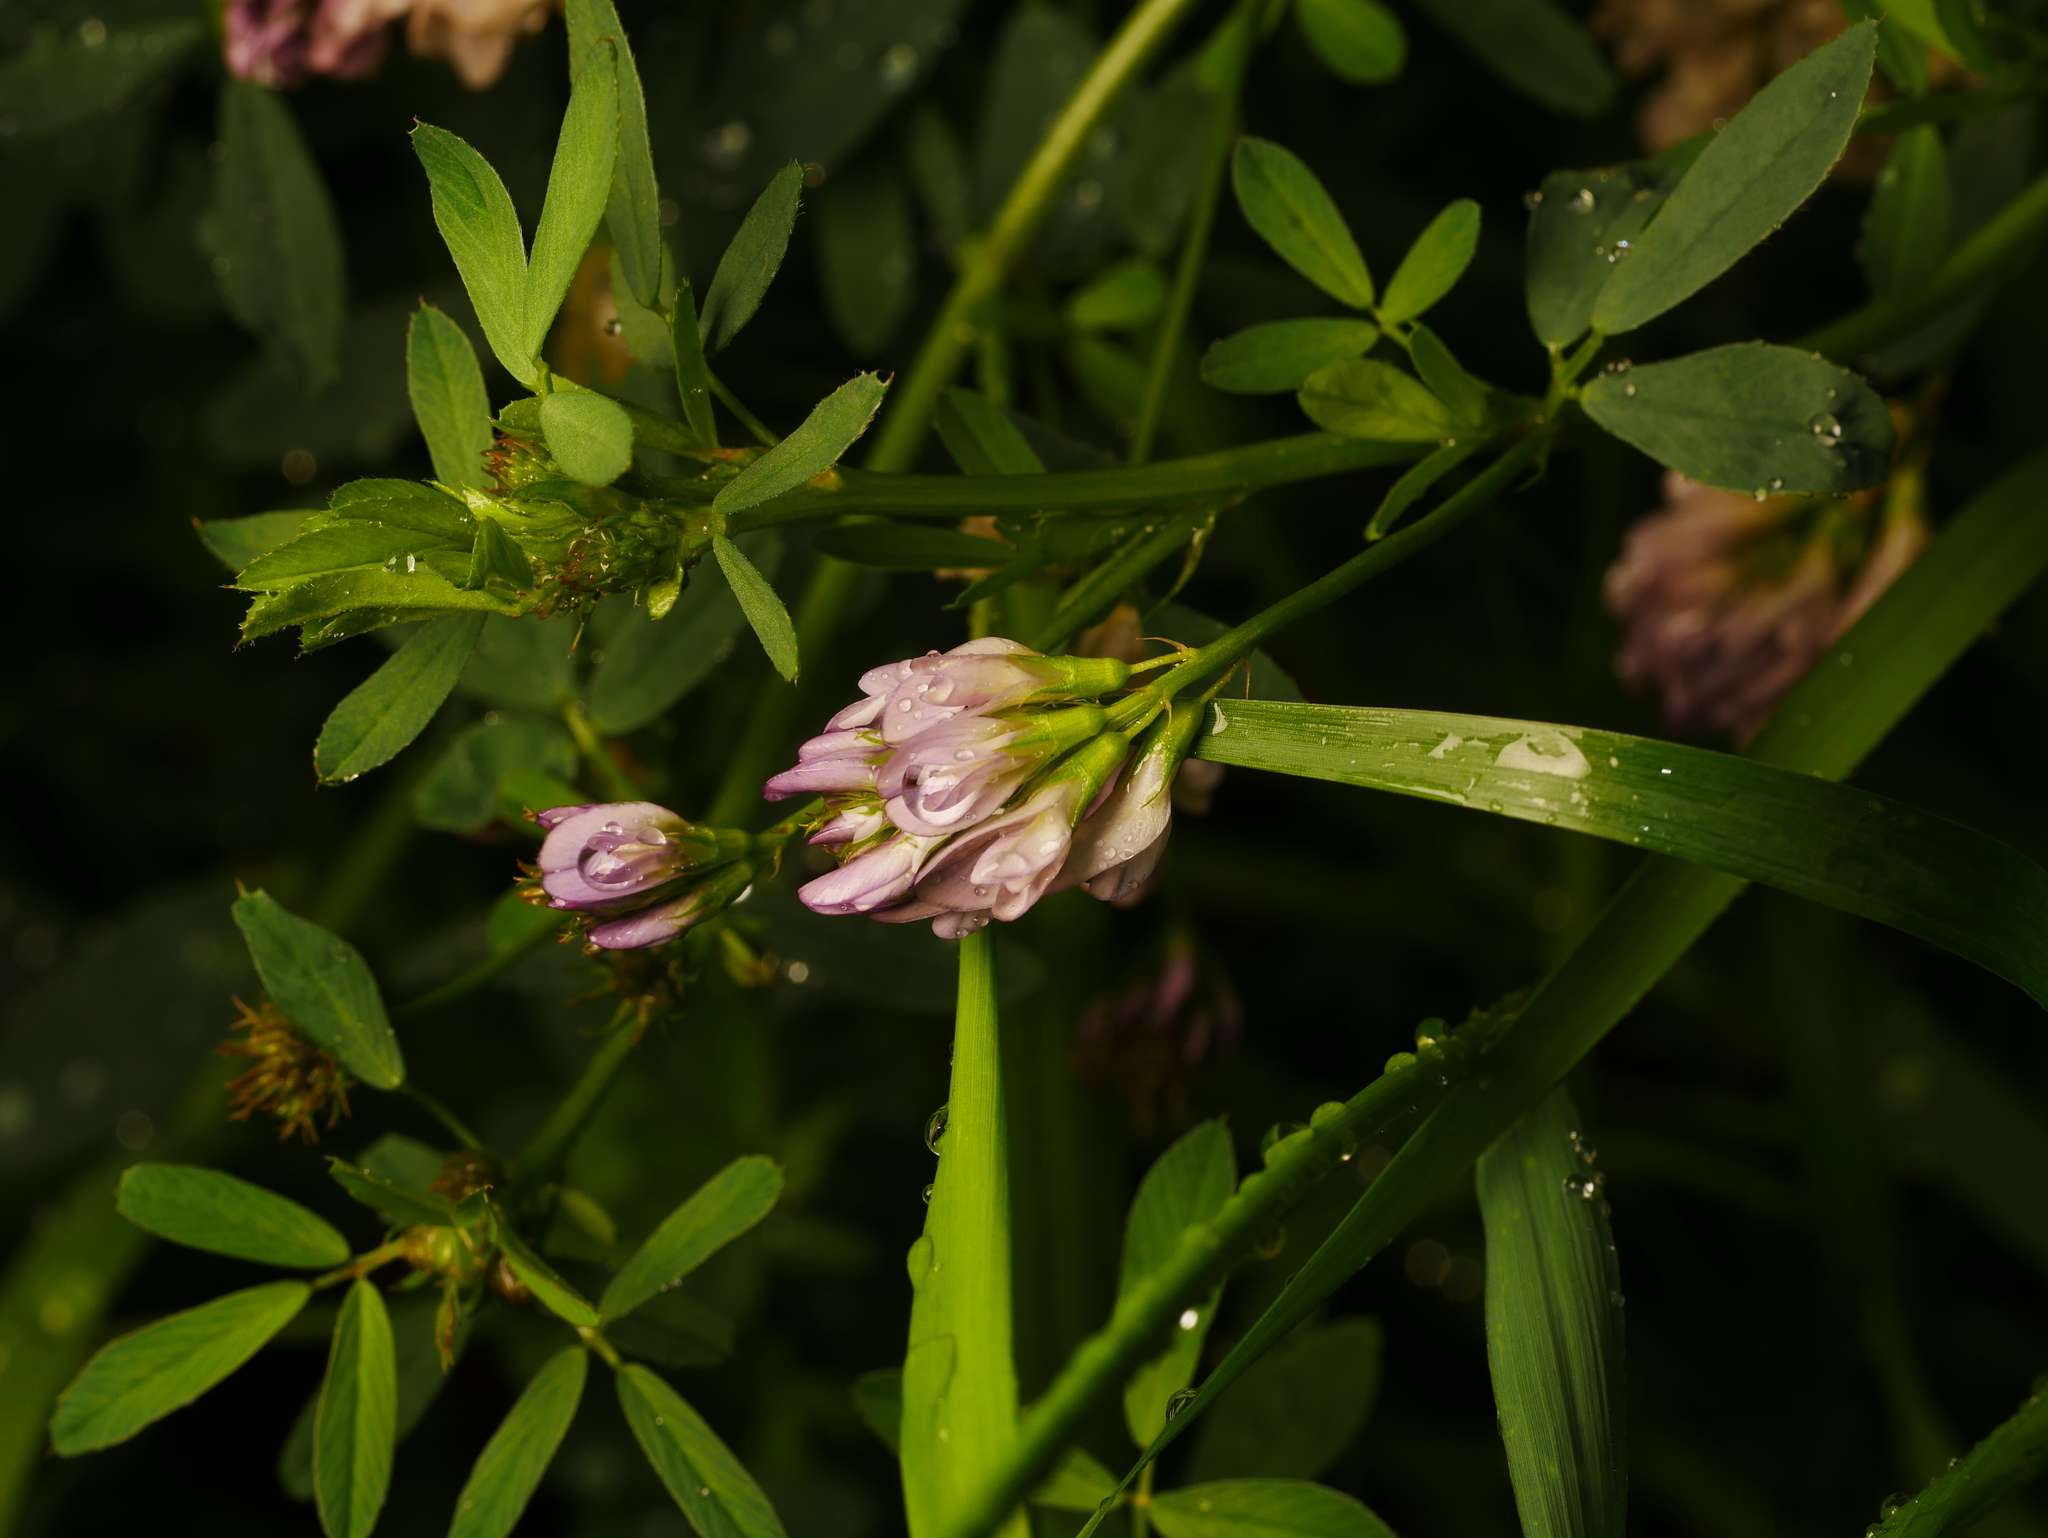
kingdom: Plantae
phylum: Tracheophyta
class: Magnoliopsida
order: Fabales
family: Fabaceae
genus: Medicago
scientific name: Medicago sativa
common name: Alfalfa
